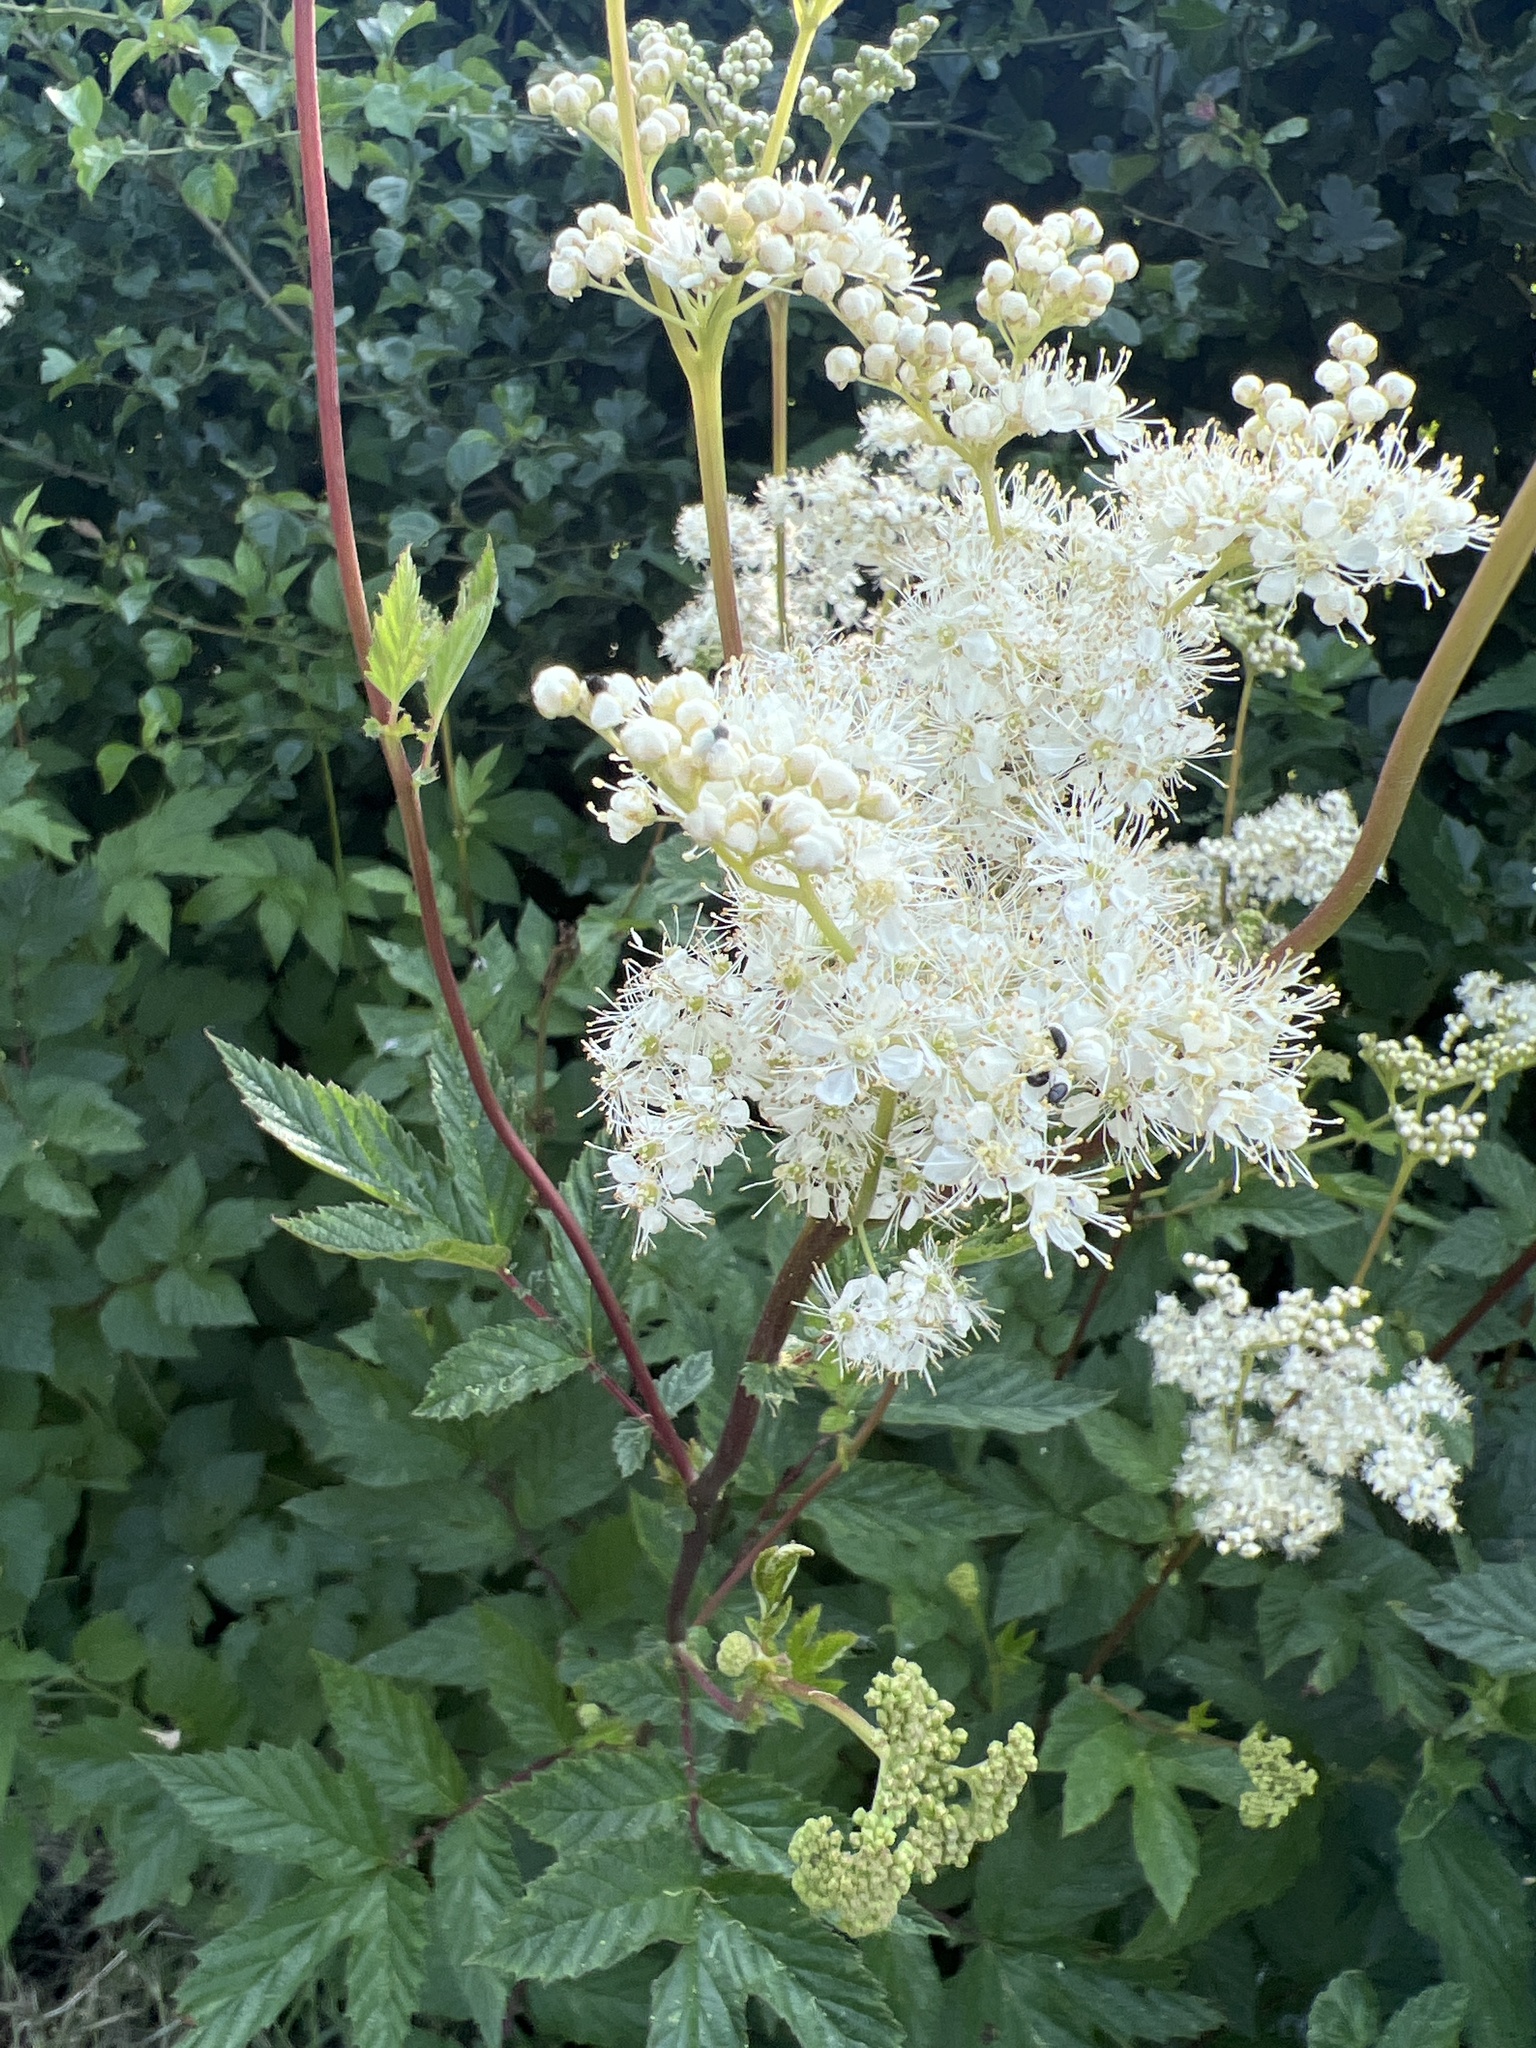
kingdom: Plantae
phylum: Tracheophyta
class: Magnoliopsida
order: Rosales
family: Rosaceae
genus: Filipendula
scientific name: Filipendula ulmaria
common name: Meadowsweet
